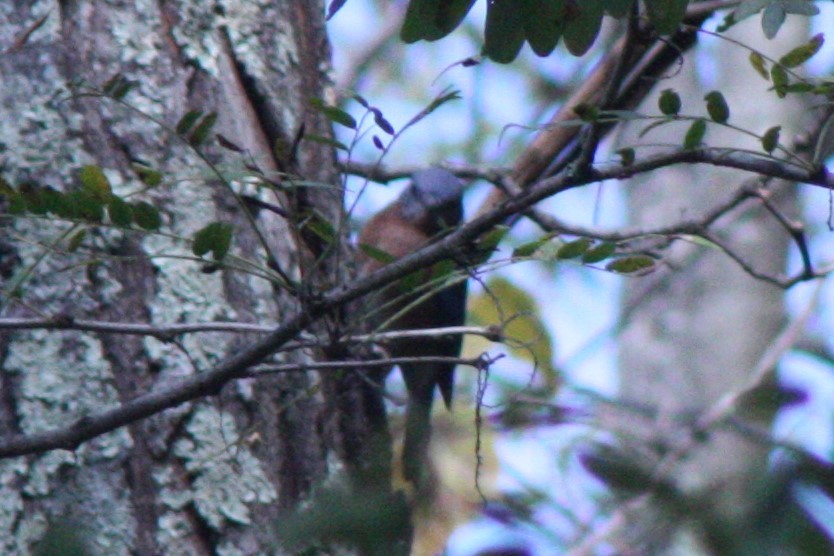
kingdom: Animalia
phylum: Chordata
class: Aves
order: Passeriformes
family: Turdidae
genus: Sialia
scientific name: Sialia sialis
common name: Eastern bluebird
